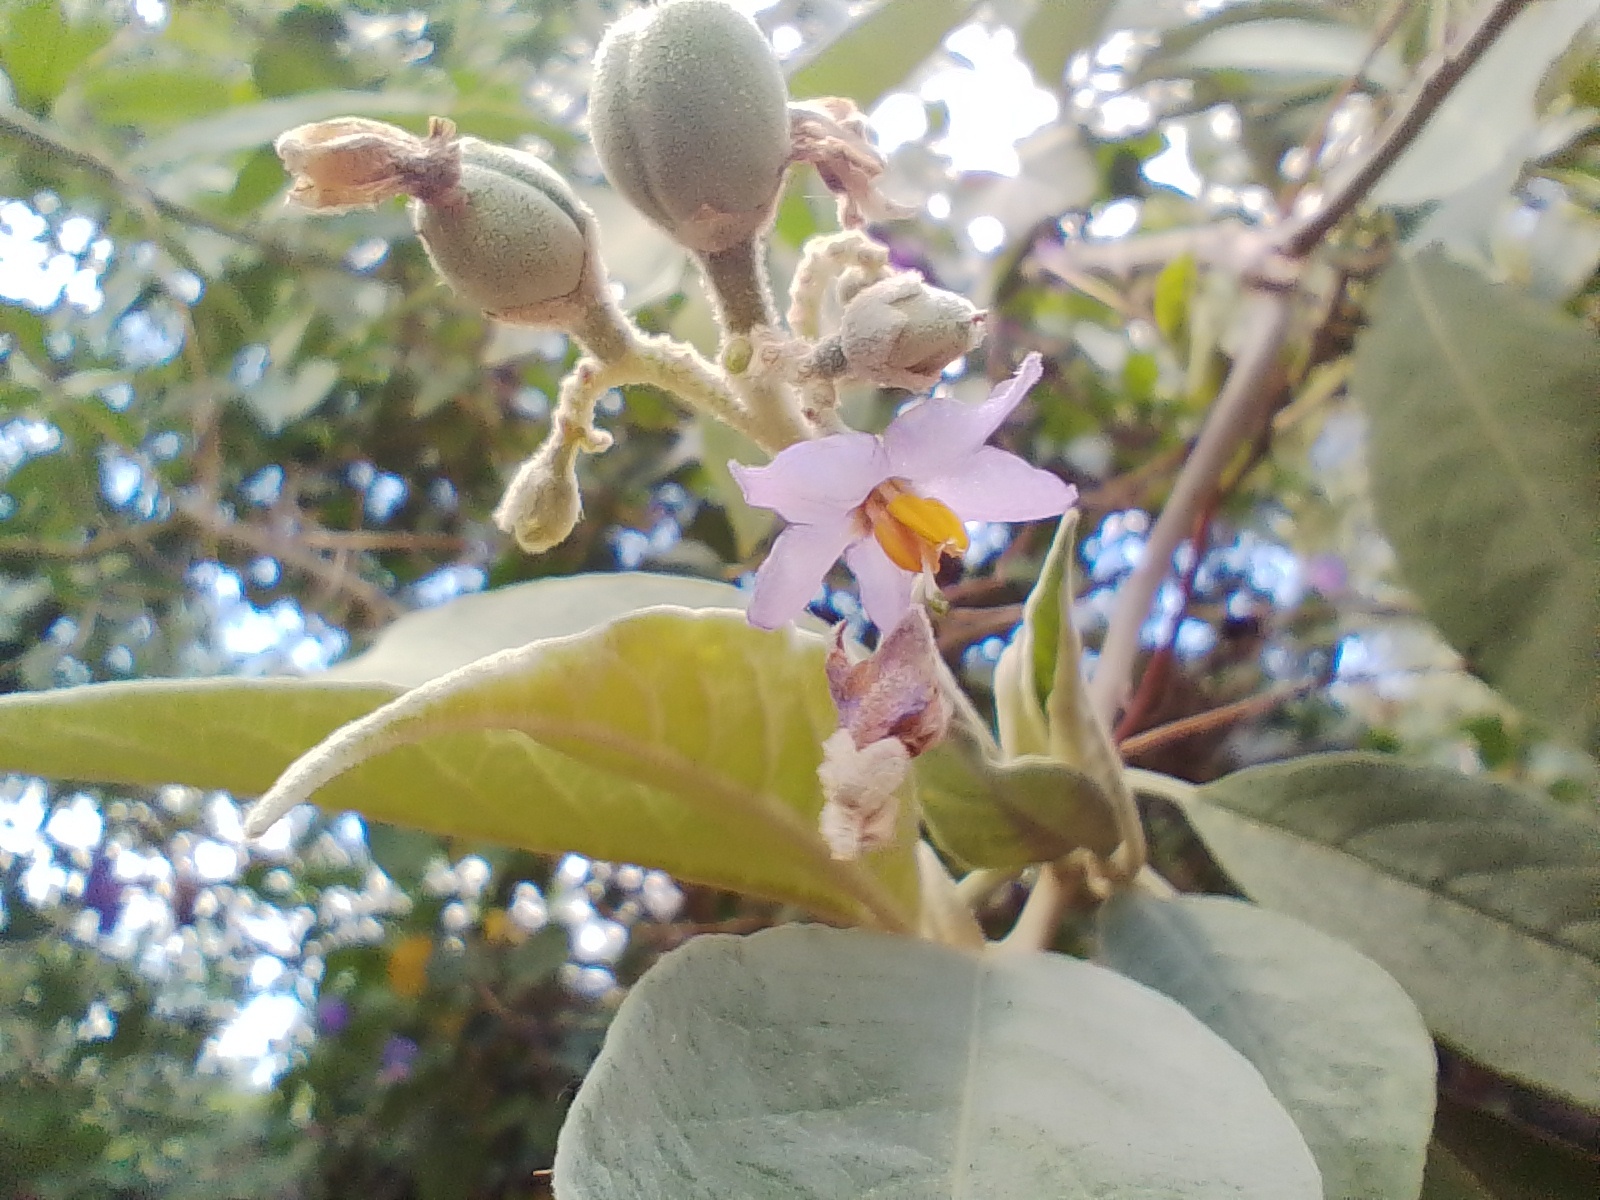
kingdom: Plantae
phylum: Tracheophyta
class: Magnoliopsida
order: Solanales
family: Solanaceae
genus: Solanum
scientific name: Solanum granulosoleprosum
